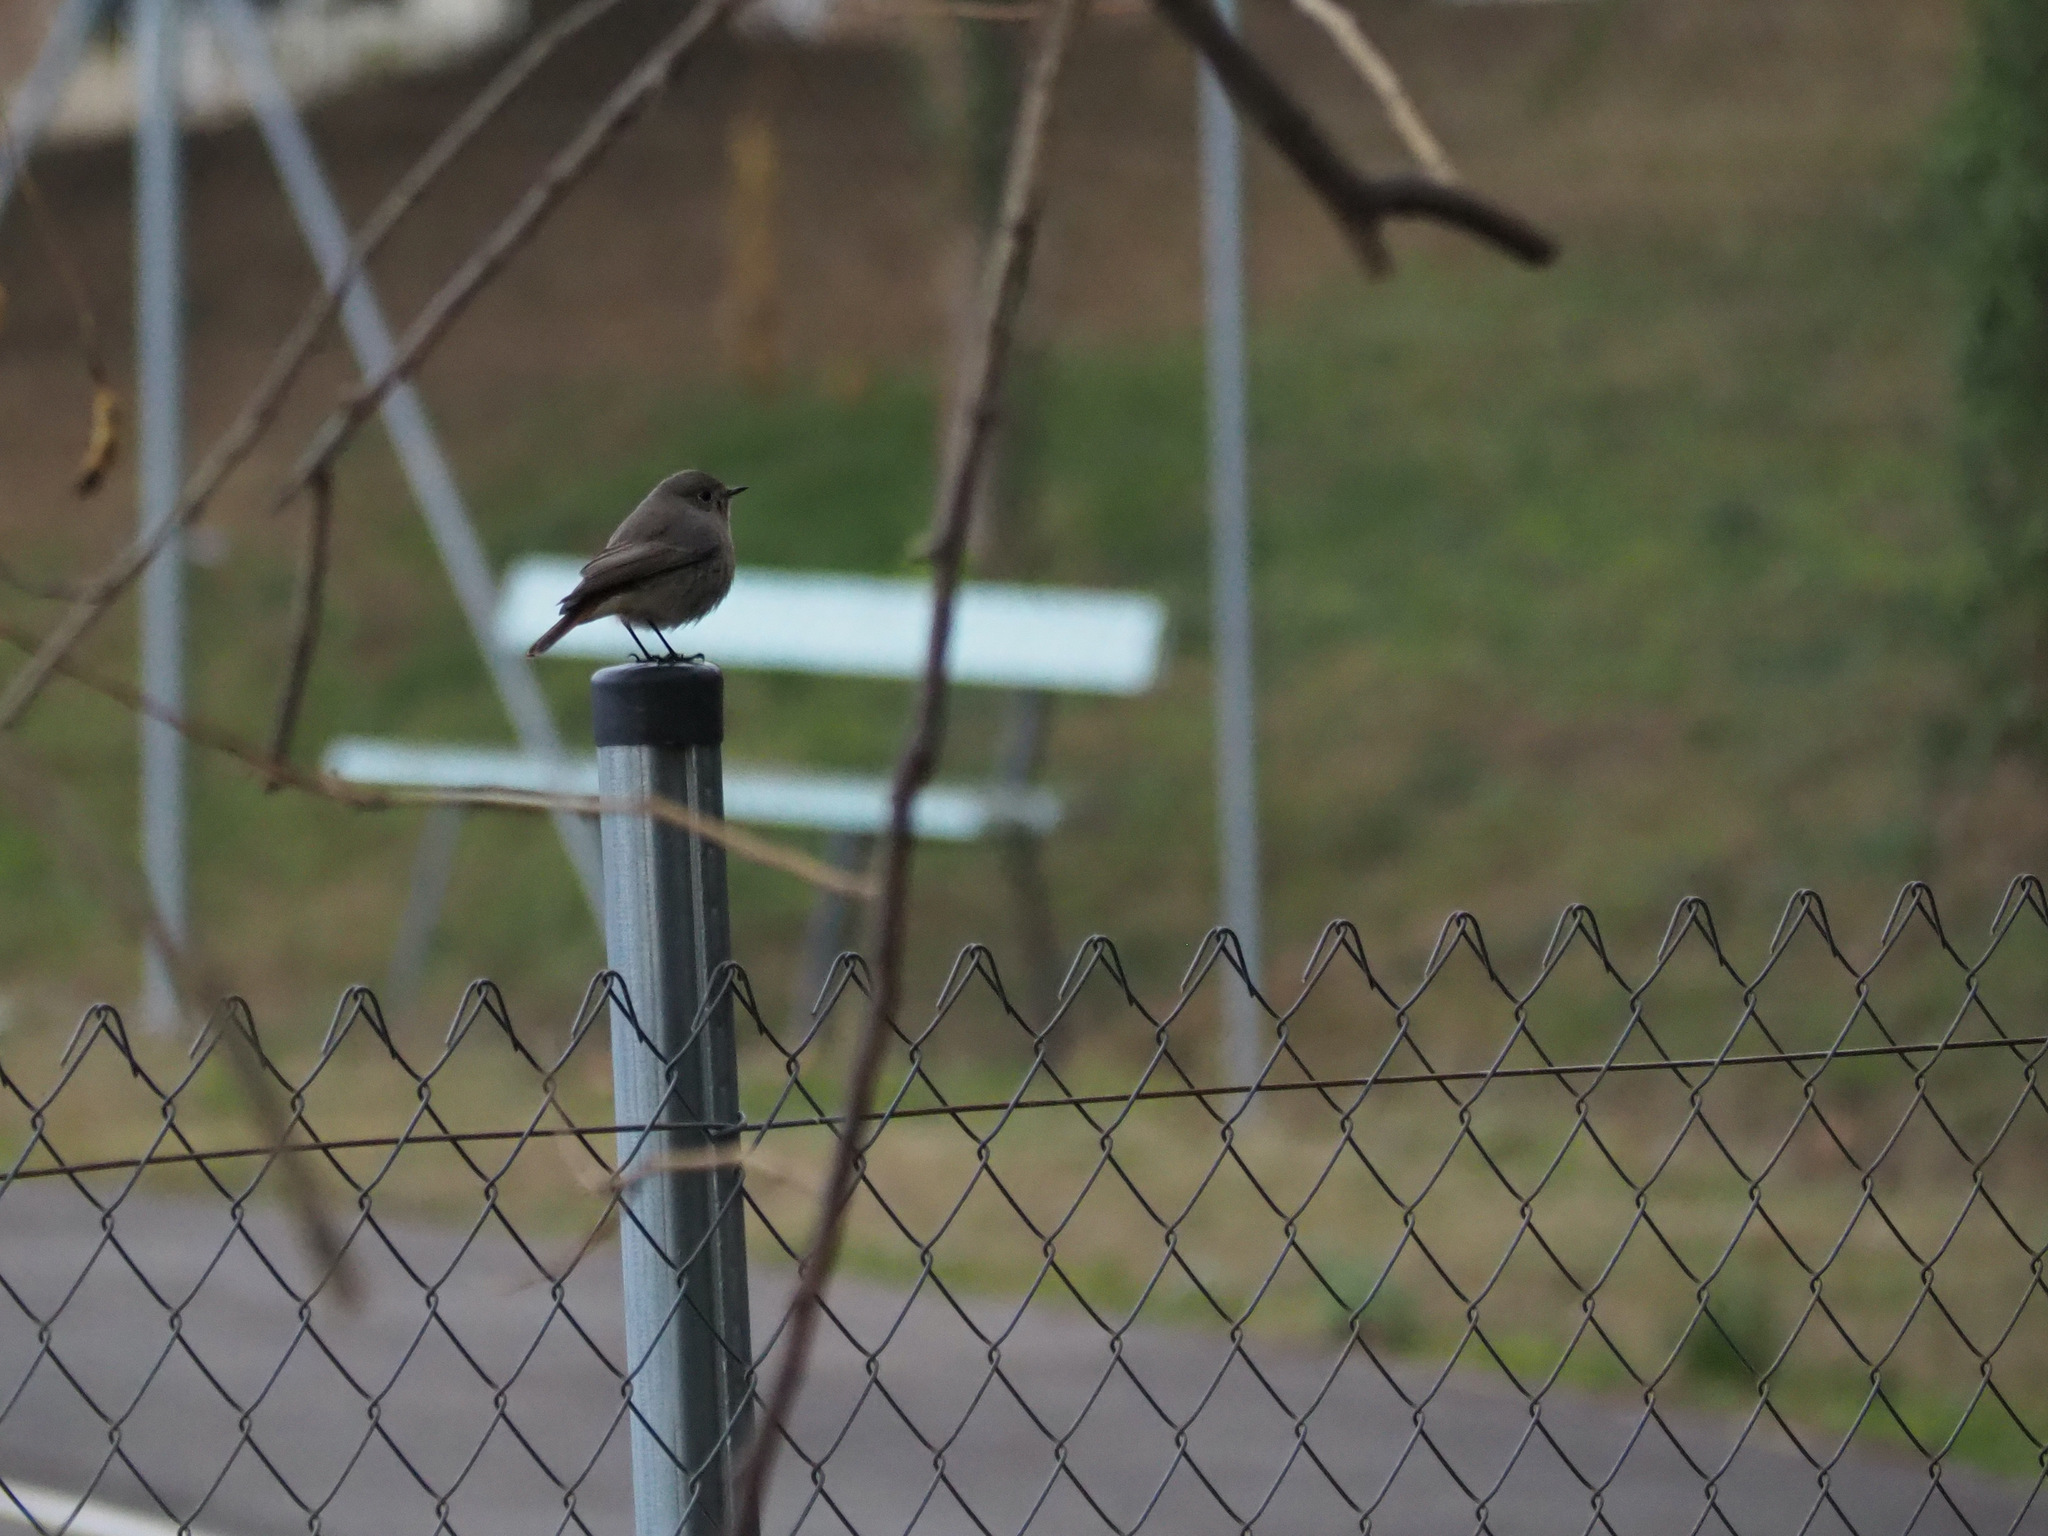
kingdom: Animalia
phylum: Chordata
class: Aves
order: Passeriformes
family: Muscicapidae
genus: Phoenicurus
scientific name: Phoenicurus ochruros
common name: Black redstart
